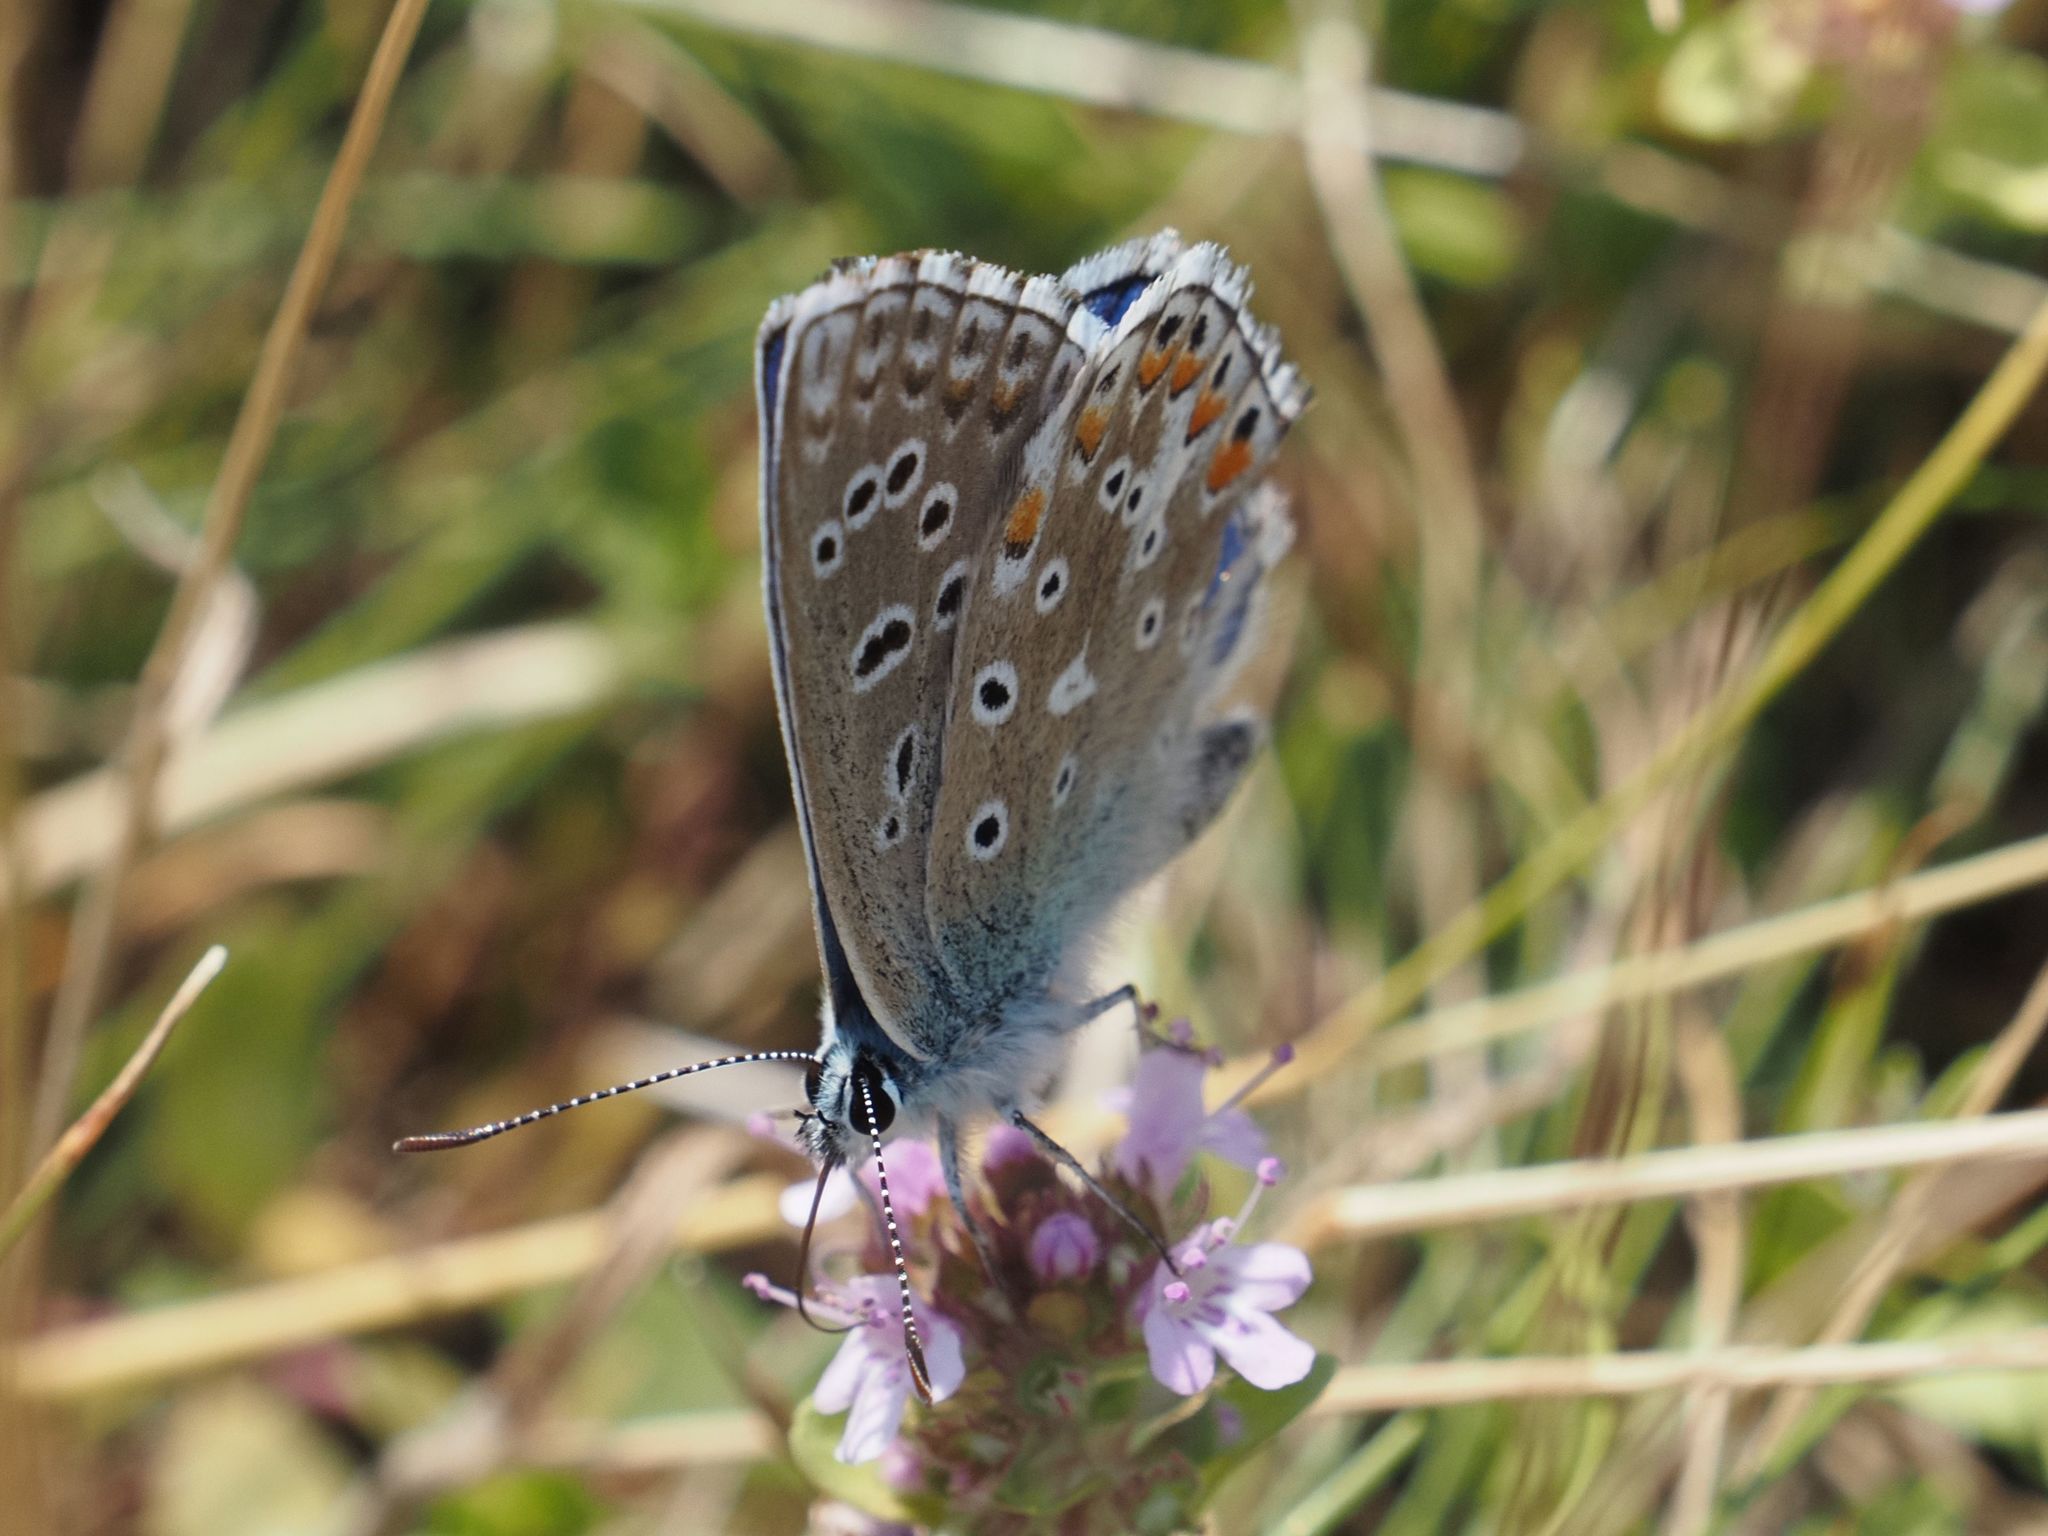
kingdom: Animalia
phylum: Arthropoda
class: Insecta
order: Lepidoptera
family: Lycaenidae
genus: Lysandra
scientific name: Lysandra bellargus
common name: Adonis blue
